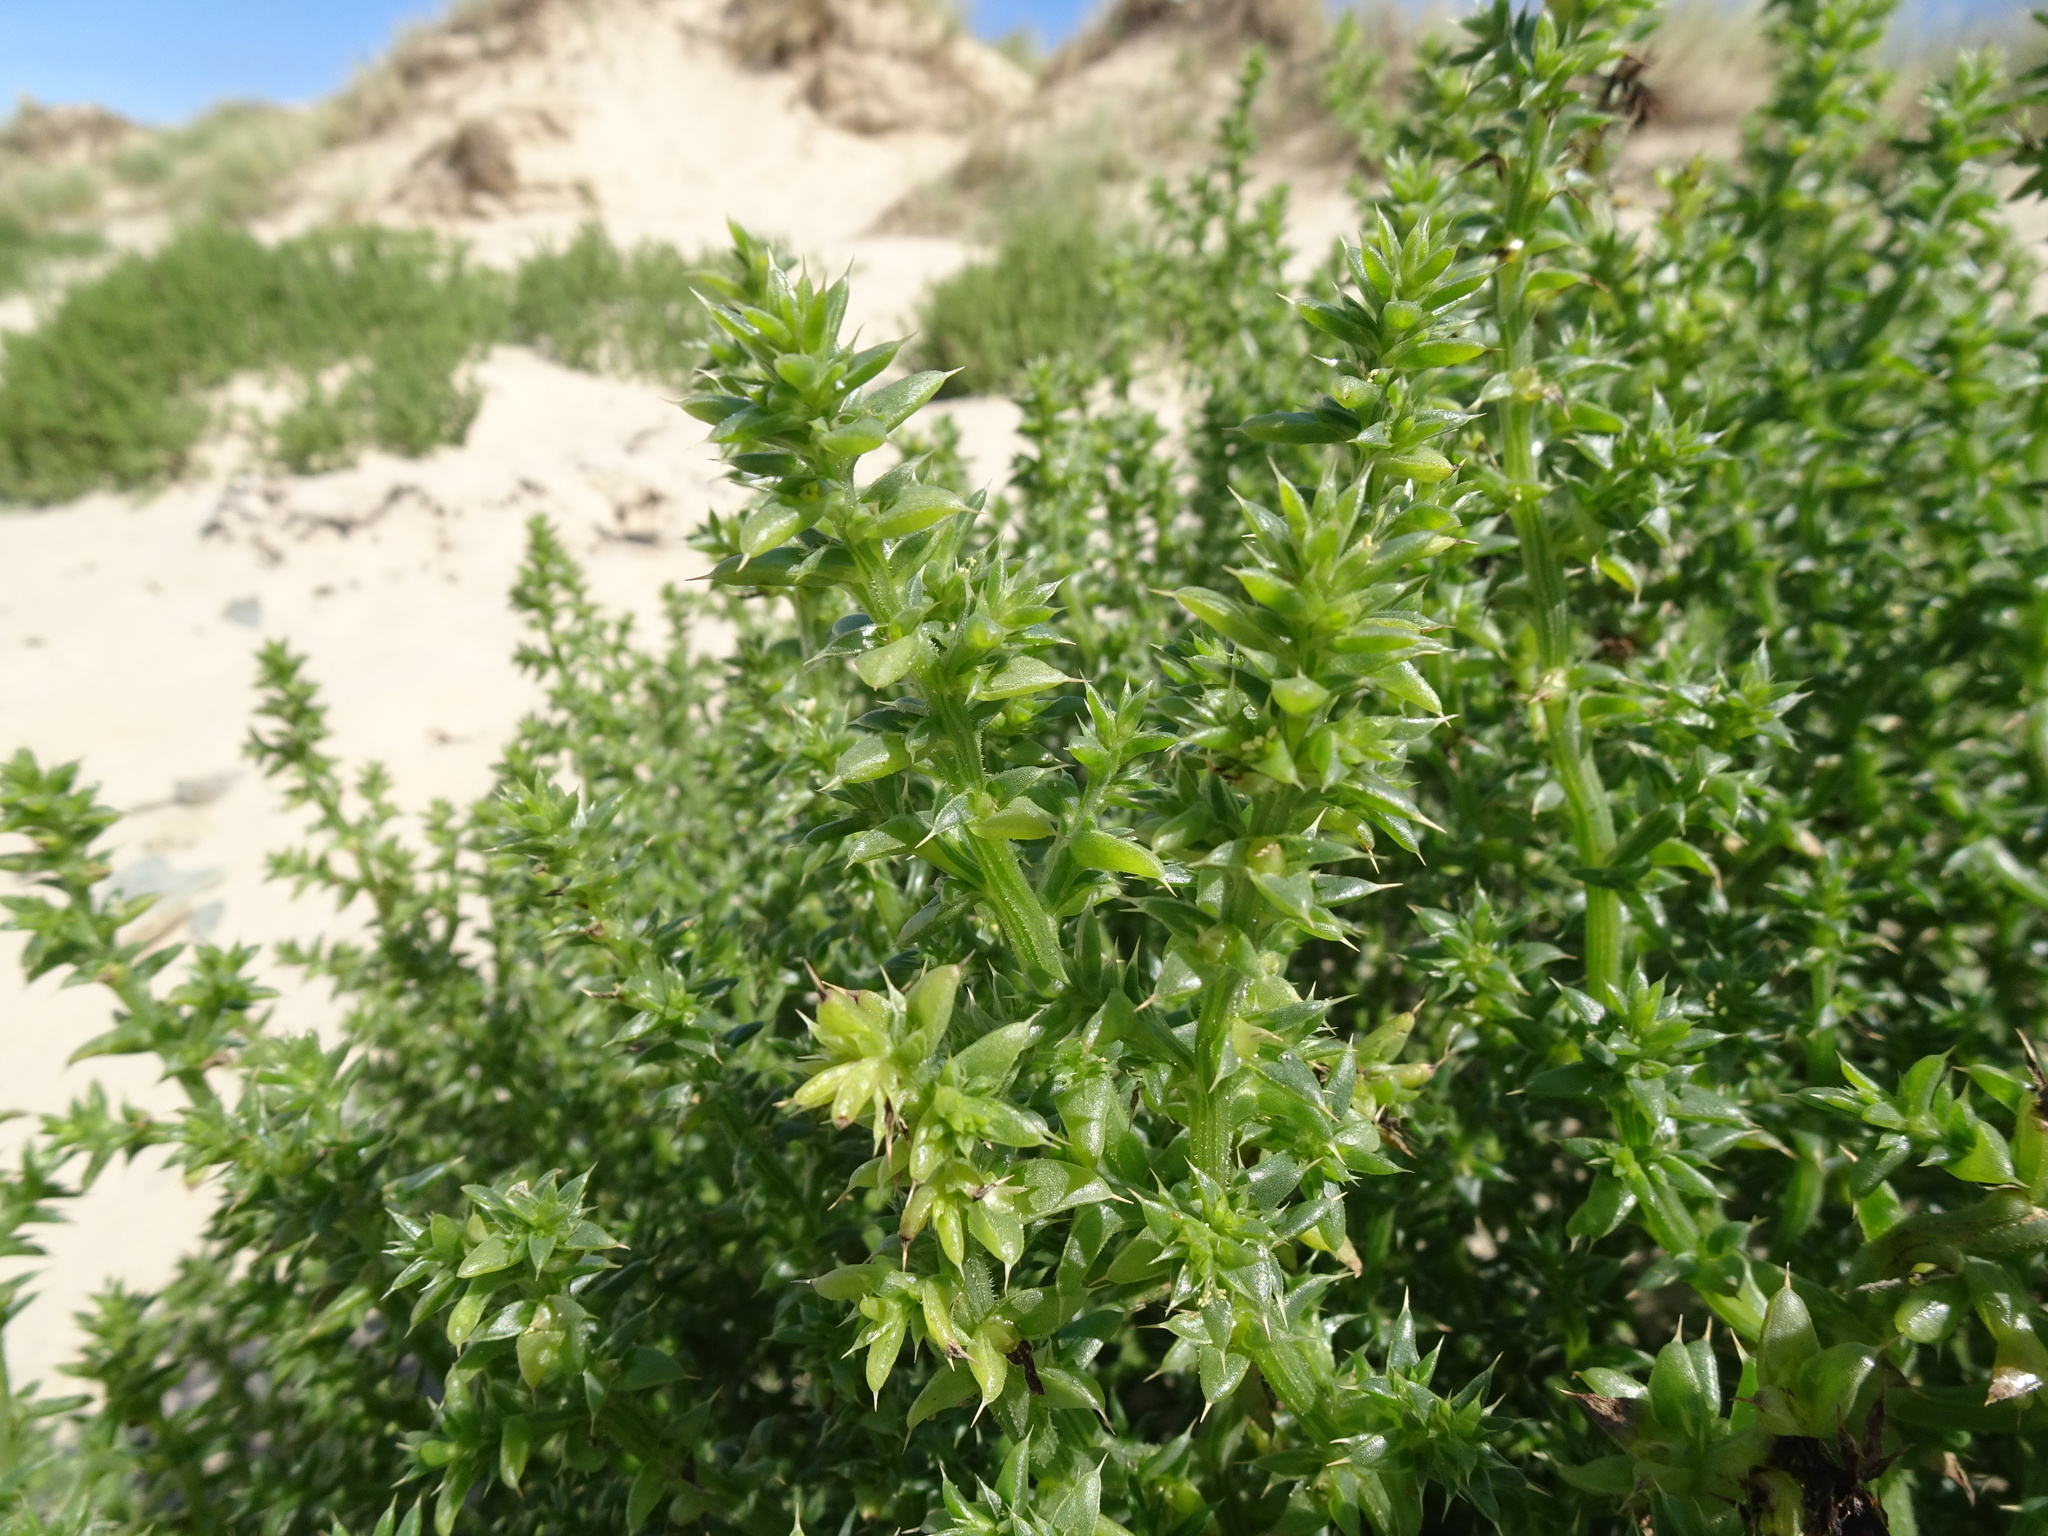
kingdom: Plantae
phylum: Tracheophyta
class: Magnoliopsida
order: Caryophyllales
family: Amaranthaceae
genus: Salsola
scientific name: Salsola kali
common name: Saltwort
